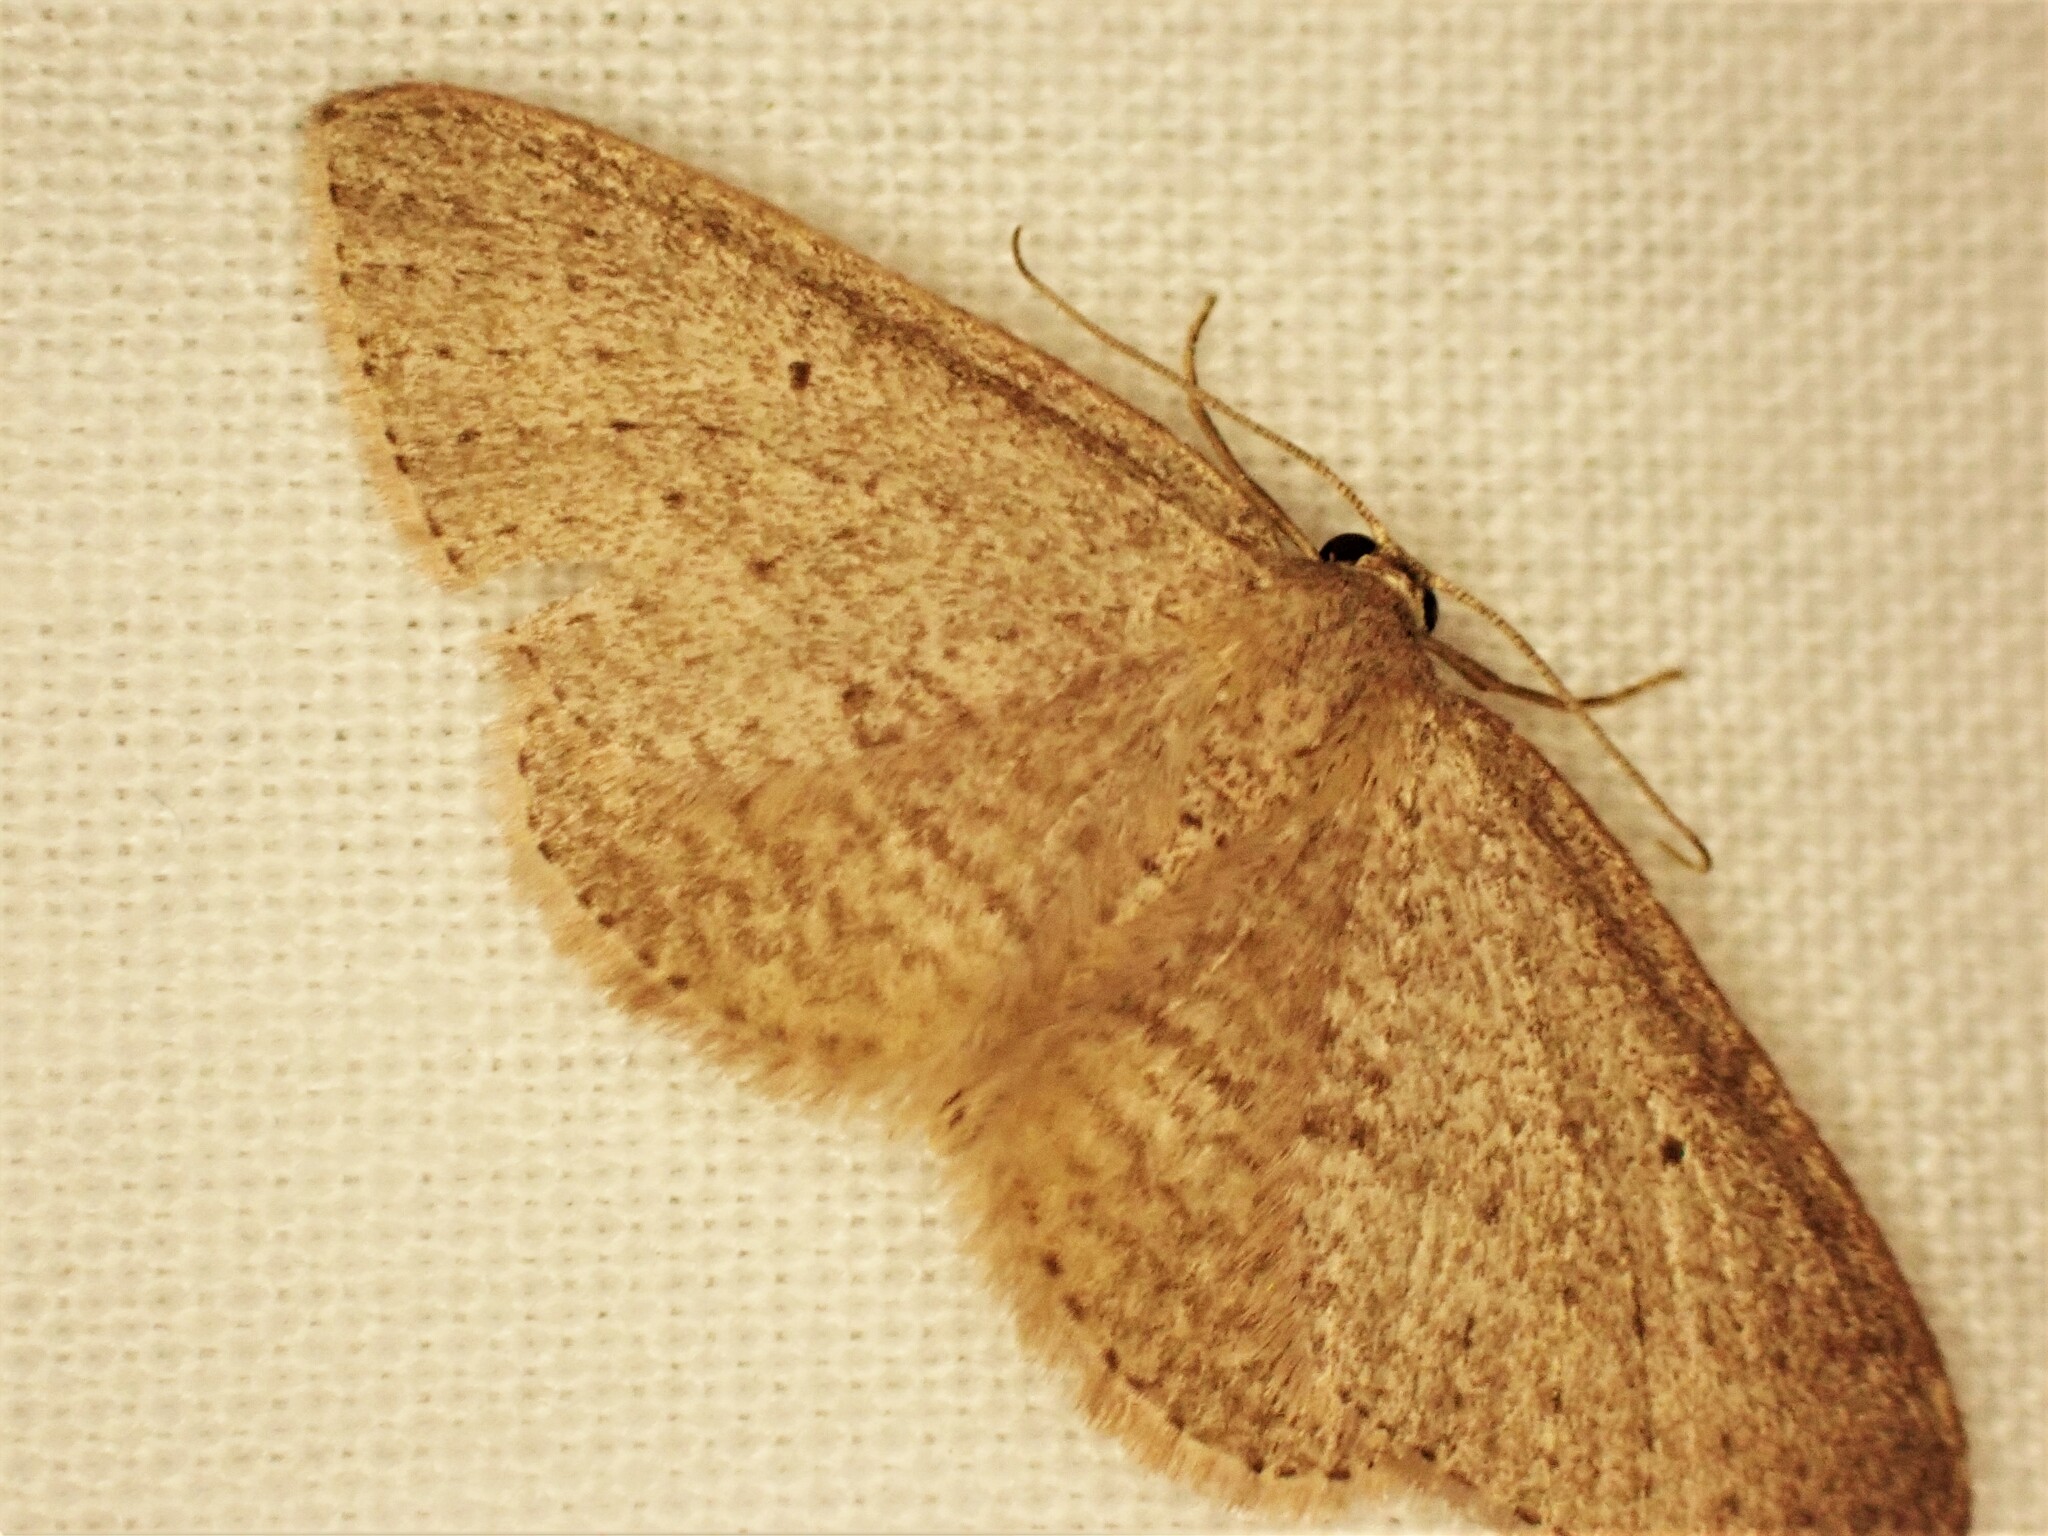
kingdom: Animalia
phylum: Arthropoda
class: Insecta
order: Lepidoptera
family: Geometridae
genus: Poecilasthena
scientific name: Poecilasthena schistaria
